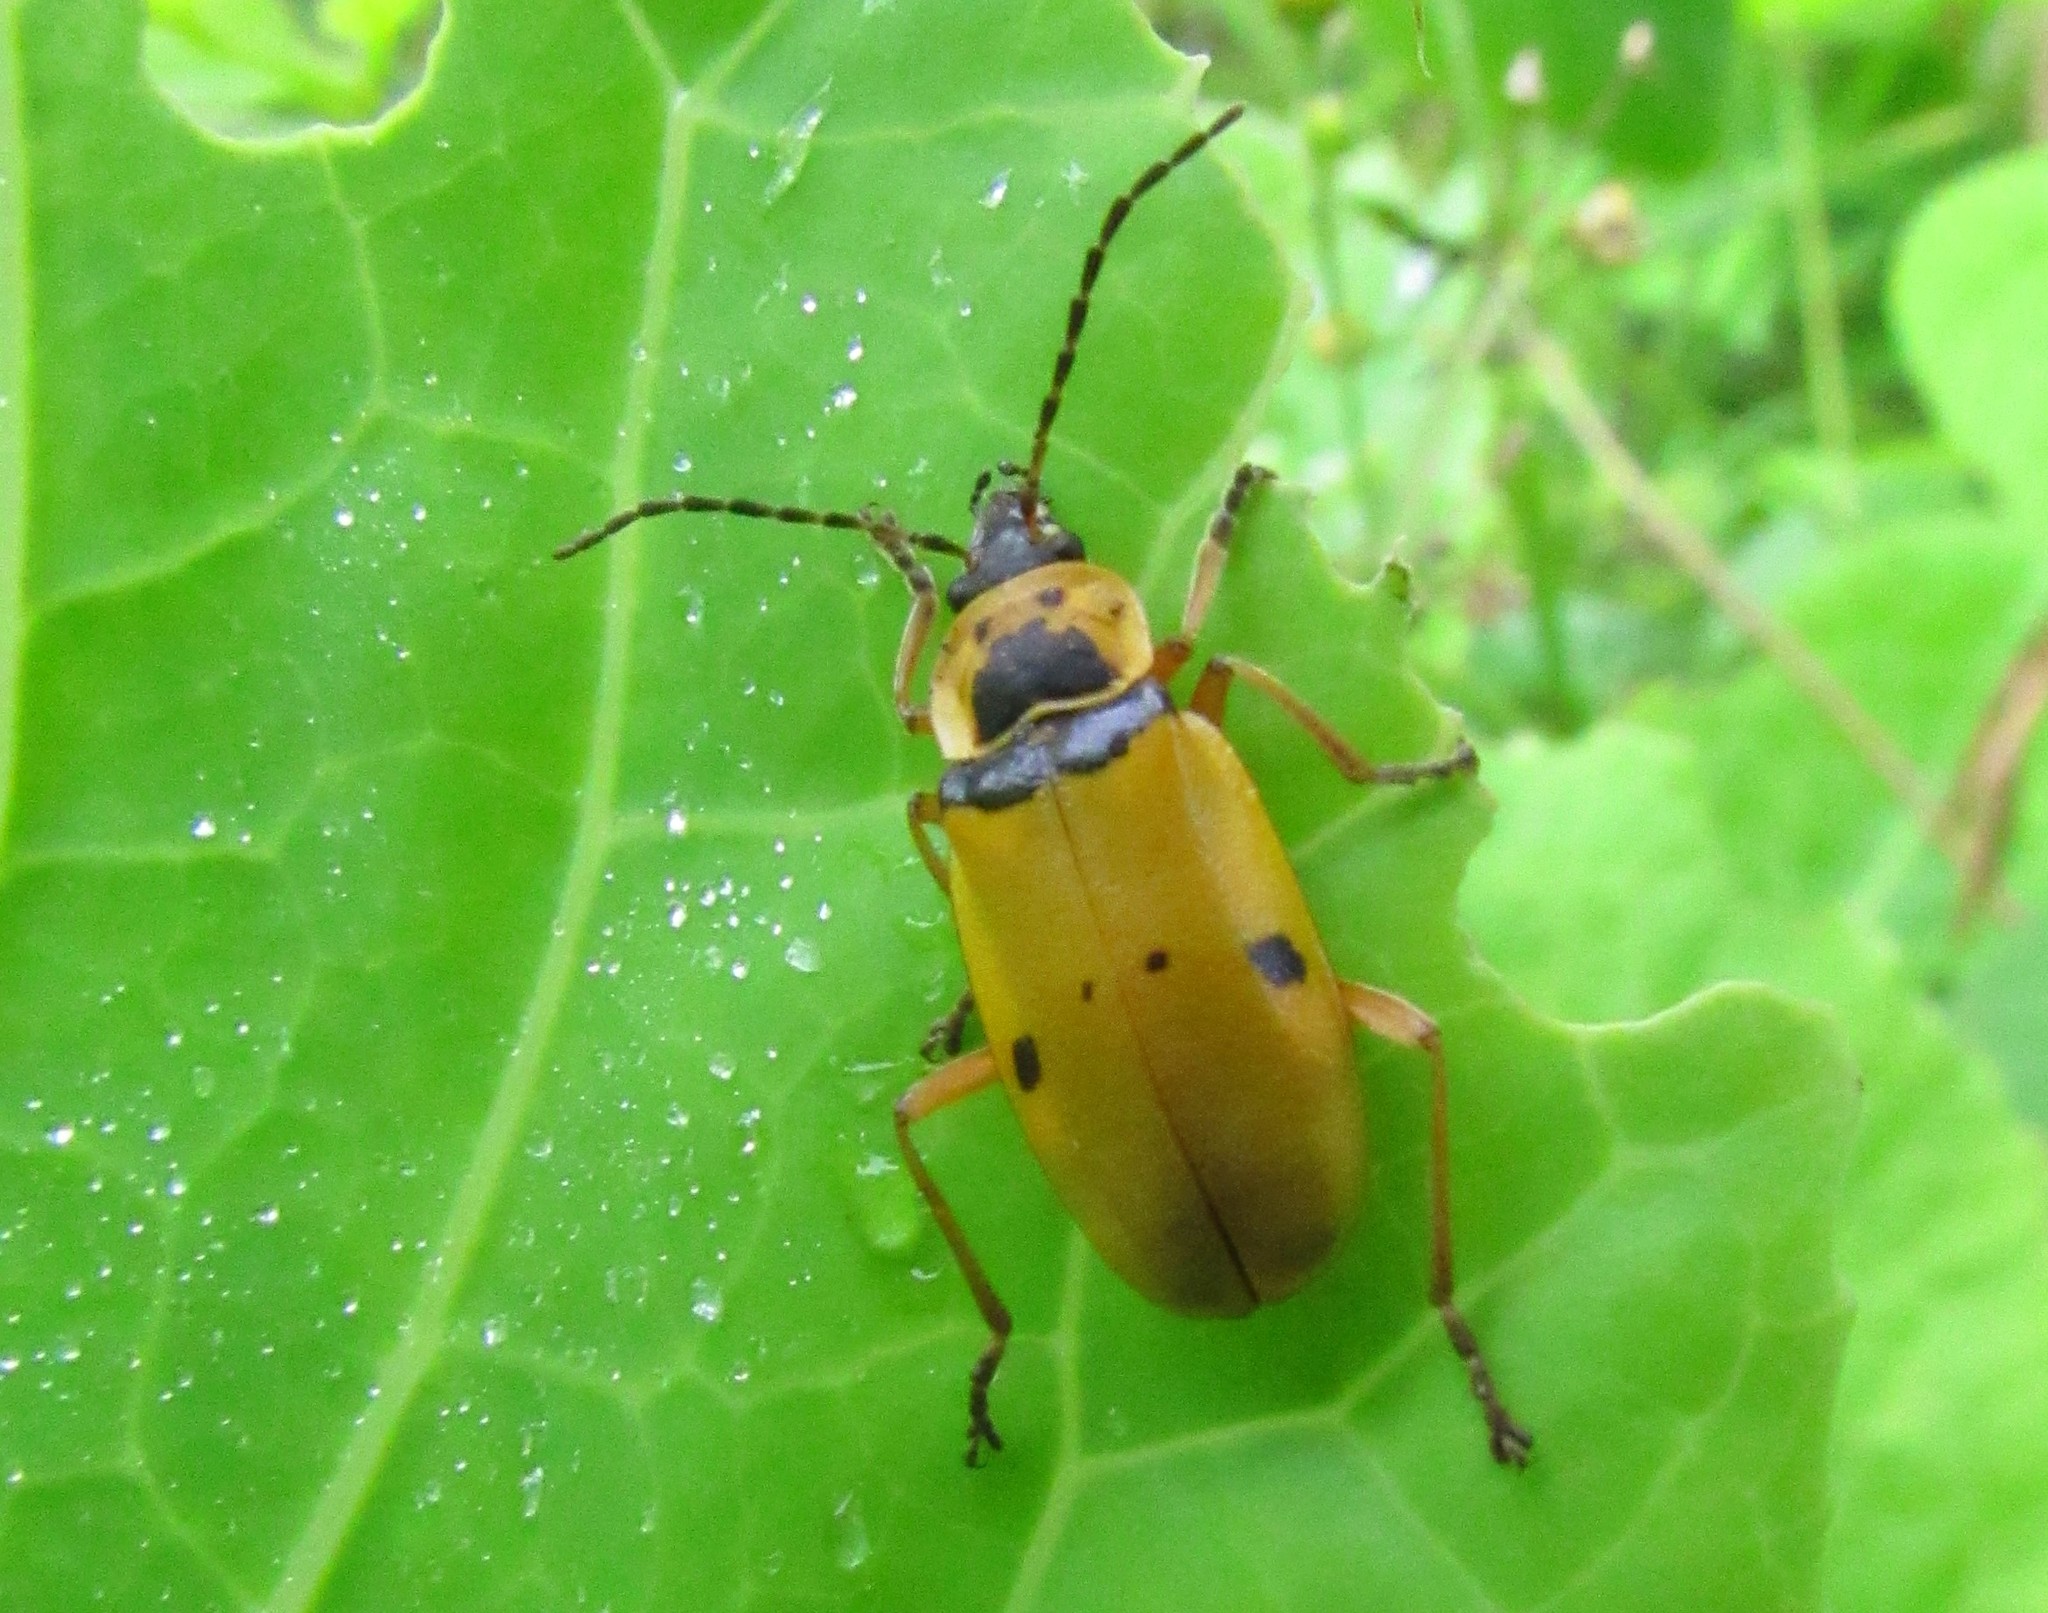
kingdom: Animalia
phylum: Arthropoda
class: Insecta
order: Coleoptera
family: Cantharidae
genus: Chauliognathus
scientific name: Chauliognathus
